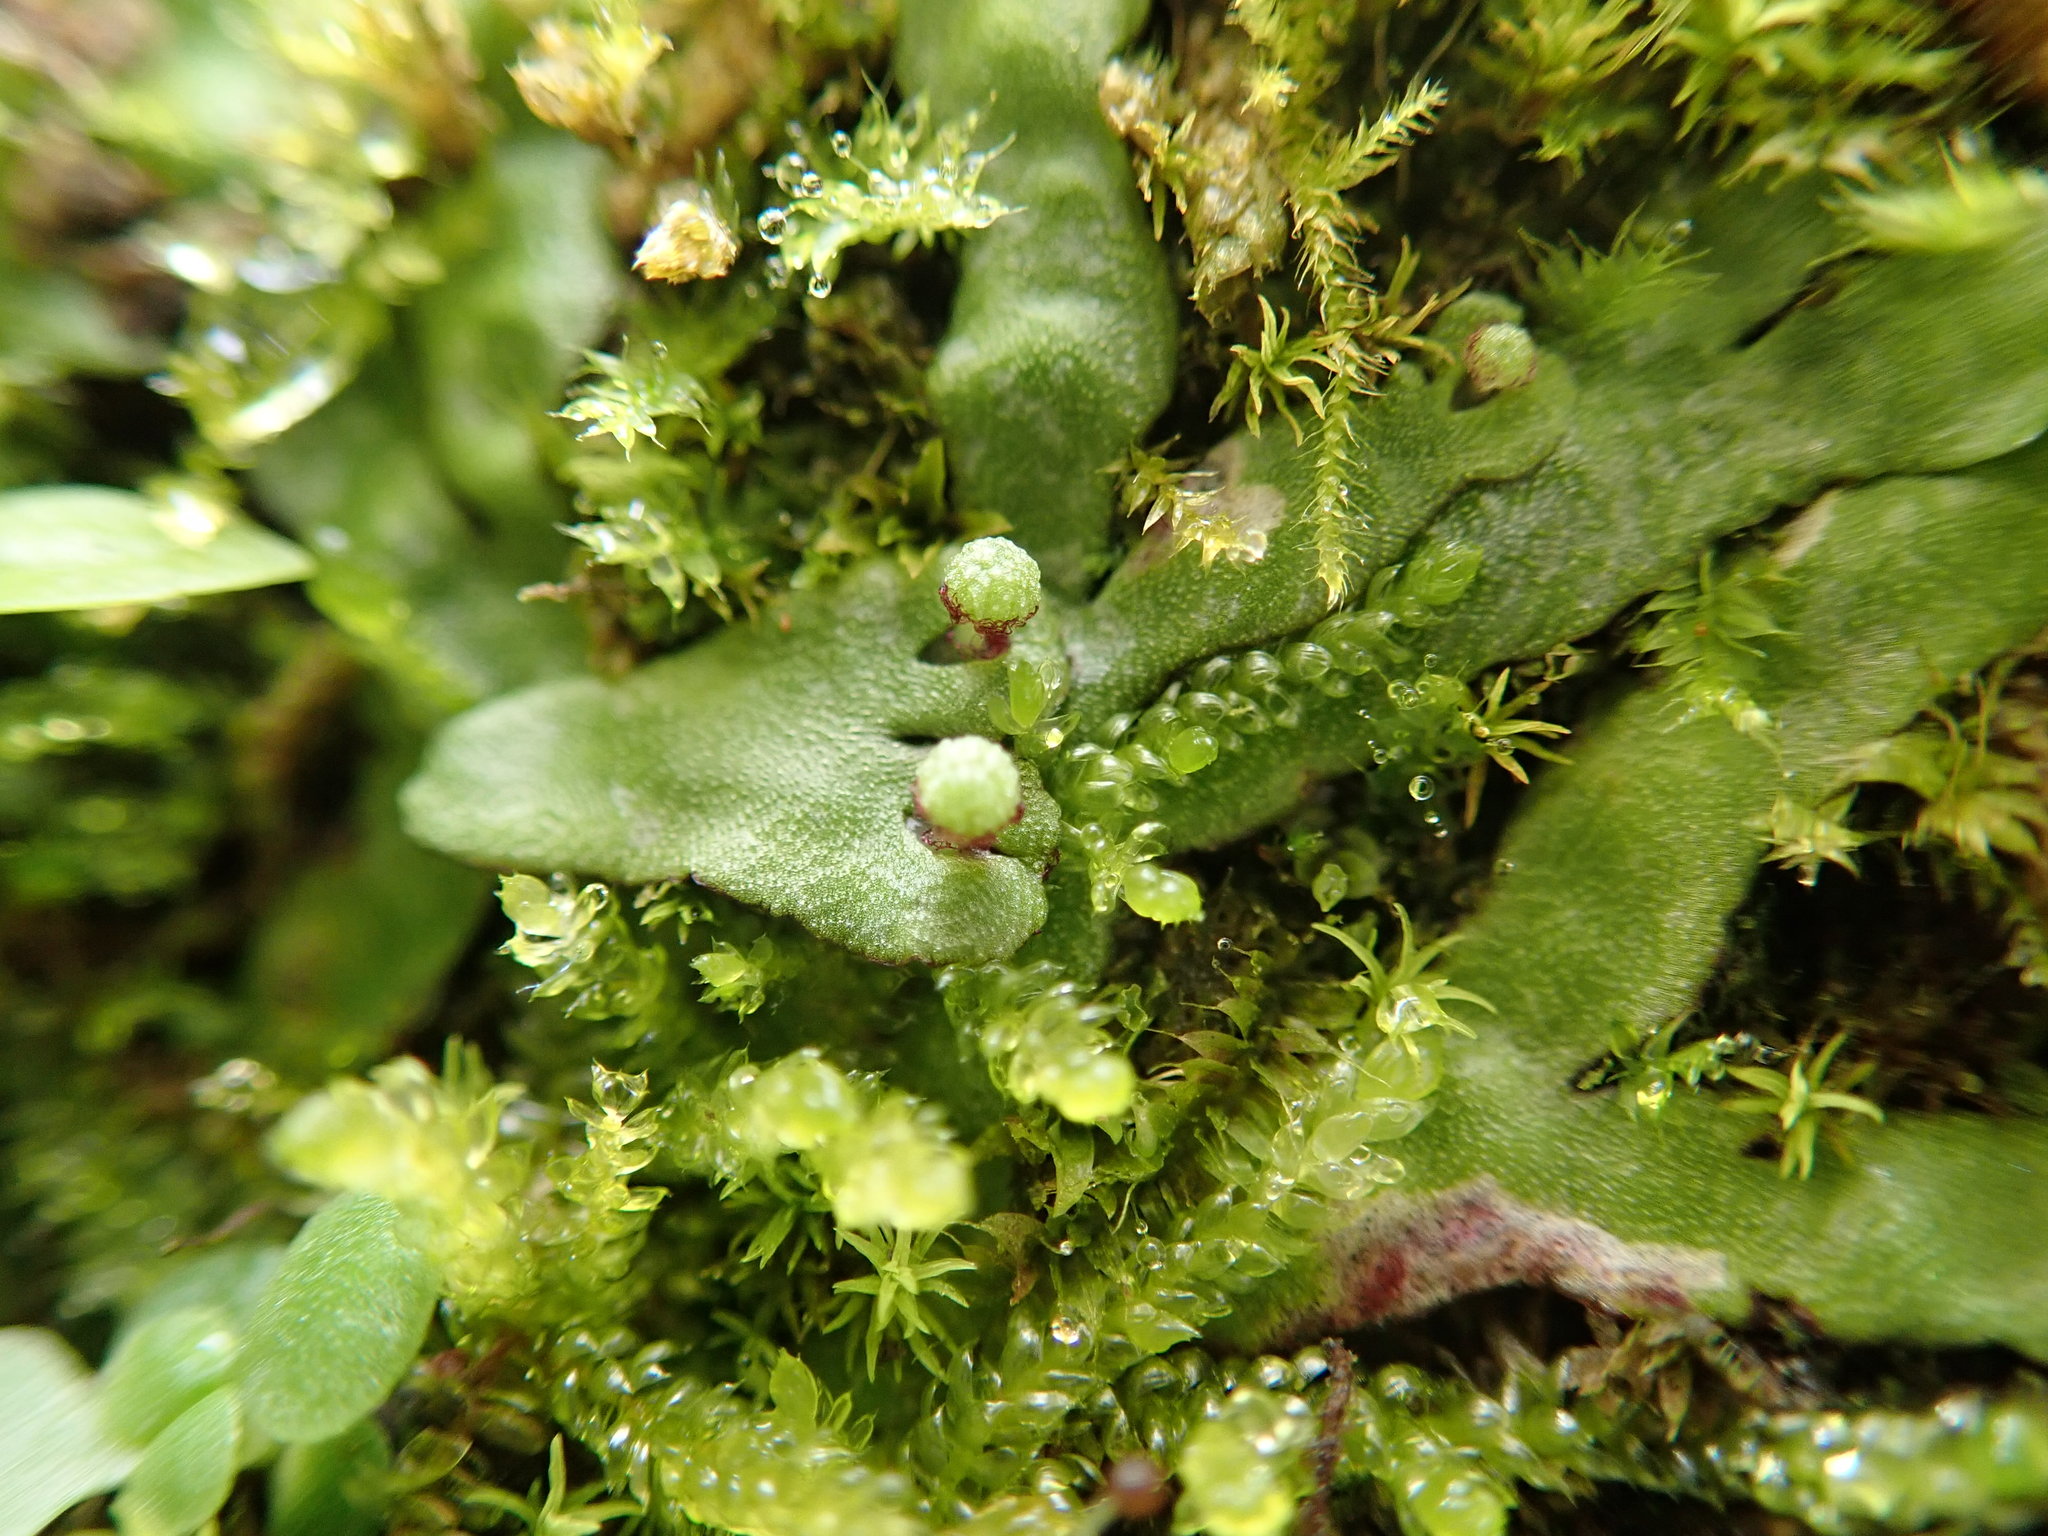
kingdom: Plantae
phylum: Marchantiophyta
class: Marchantiopsida
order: Marchantiales
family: Aytoniaceae
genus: Reboulia
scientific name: Reboulia hemisphaerica
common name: Purple-margined liverwort
